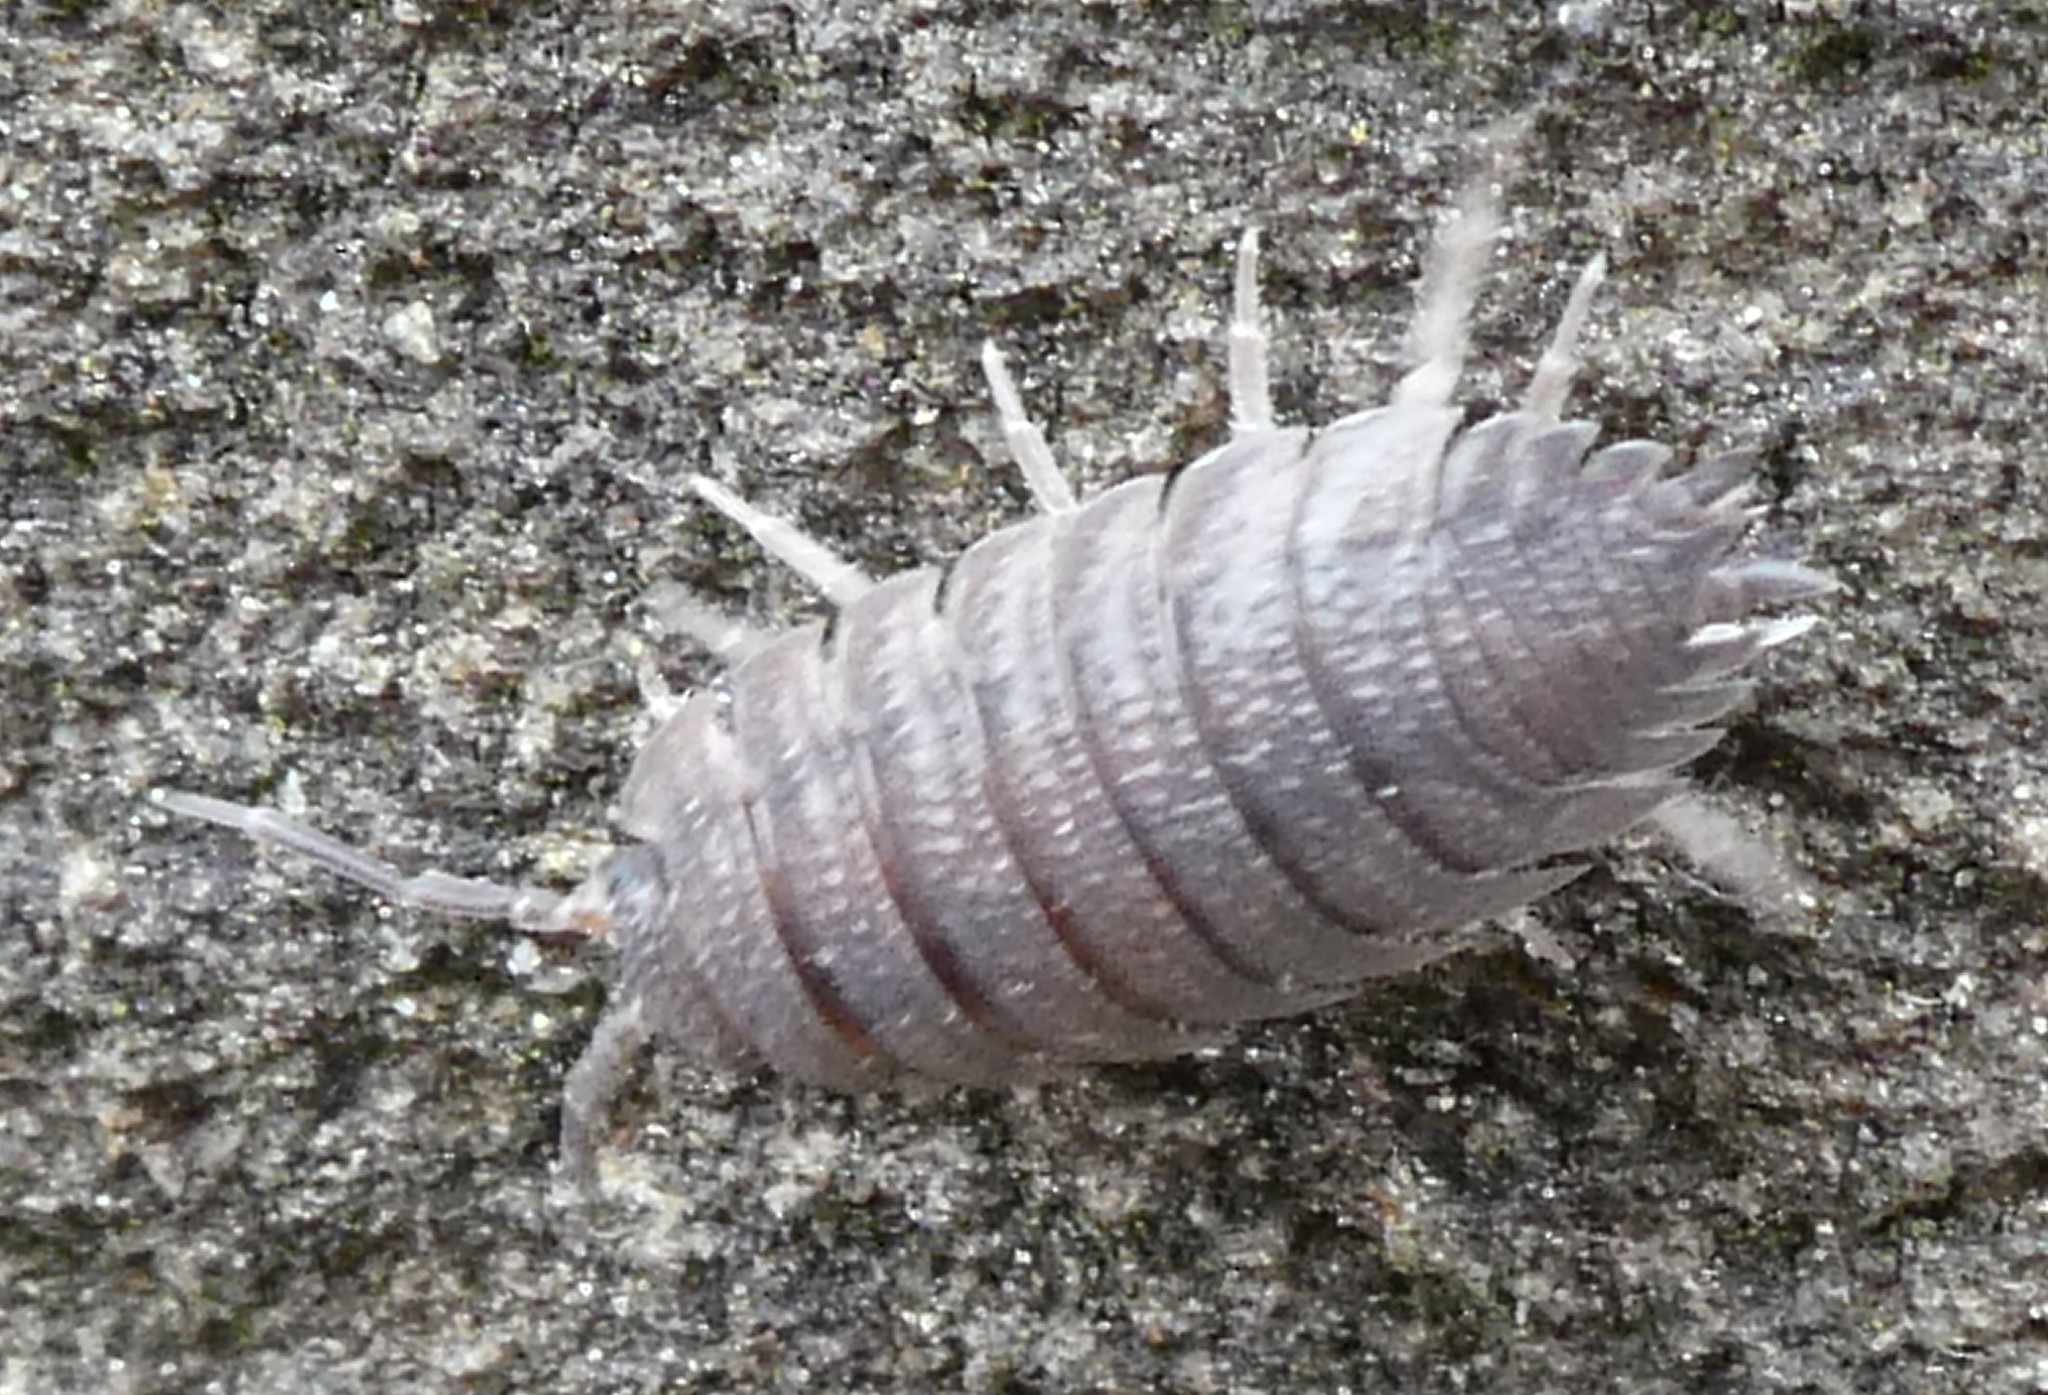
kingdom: Animalia
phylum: Arthropoda
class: Malacostraca
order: Isopoda
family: Porcellionidae
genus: Porcellio
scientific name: Porcellio scaber
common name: Common rough woodlouse
